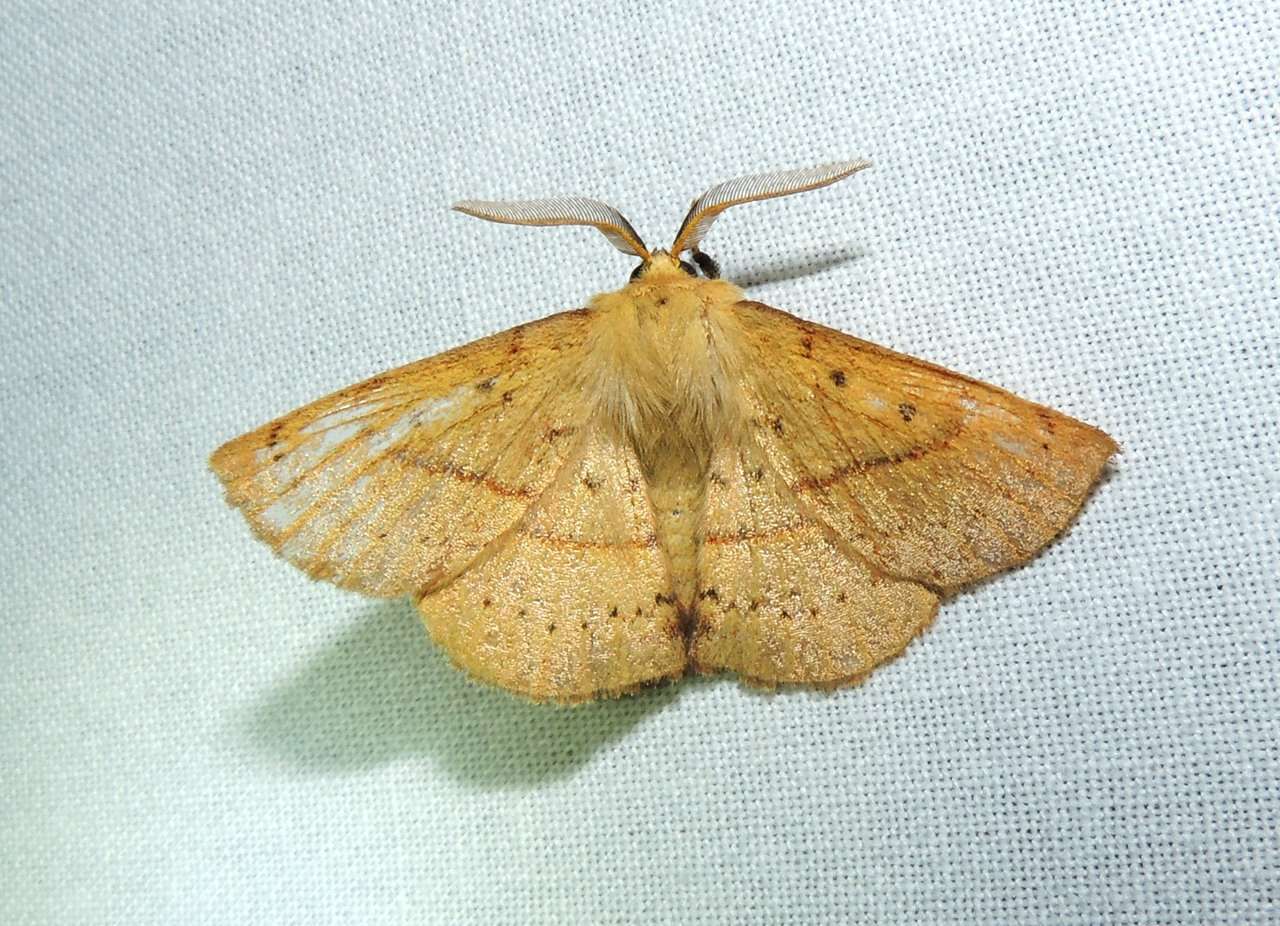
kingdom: Animalia
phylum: Arthropoda
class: Insecta
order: Lepidoptera
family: Anthelidae
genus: Anthela
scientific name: Anthela acuta
